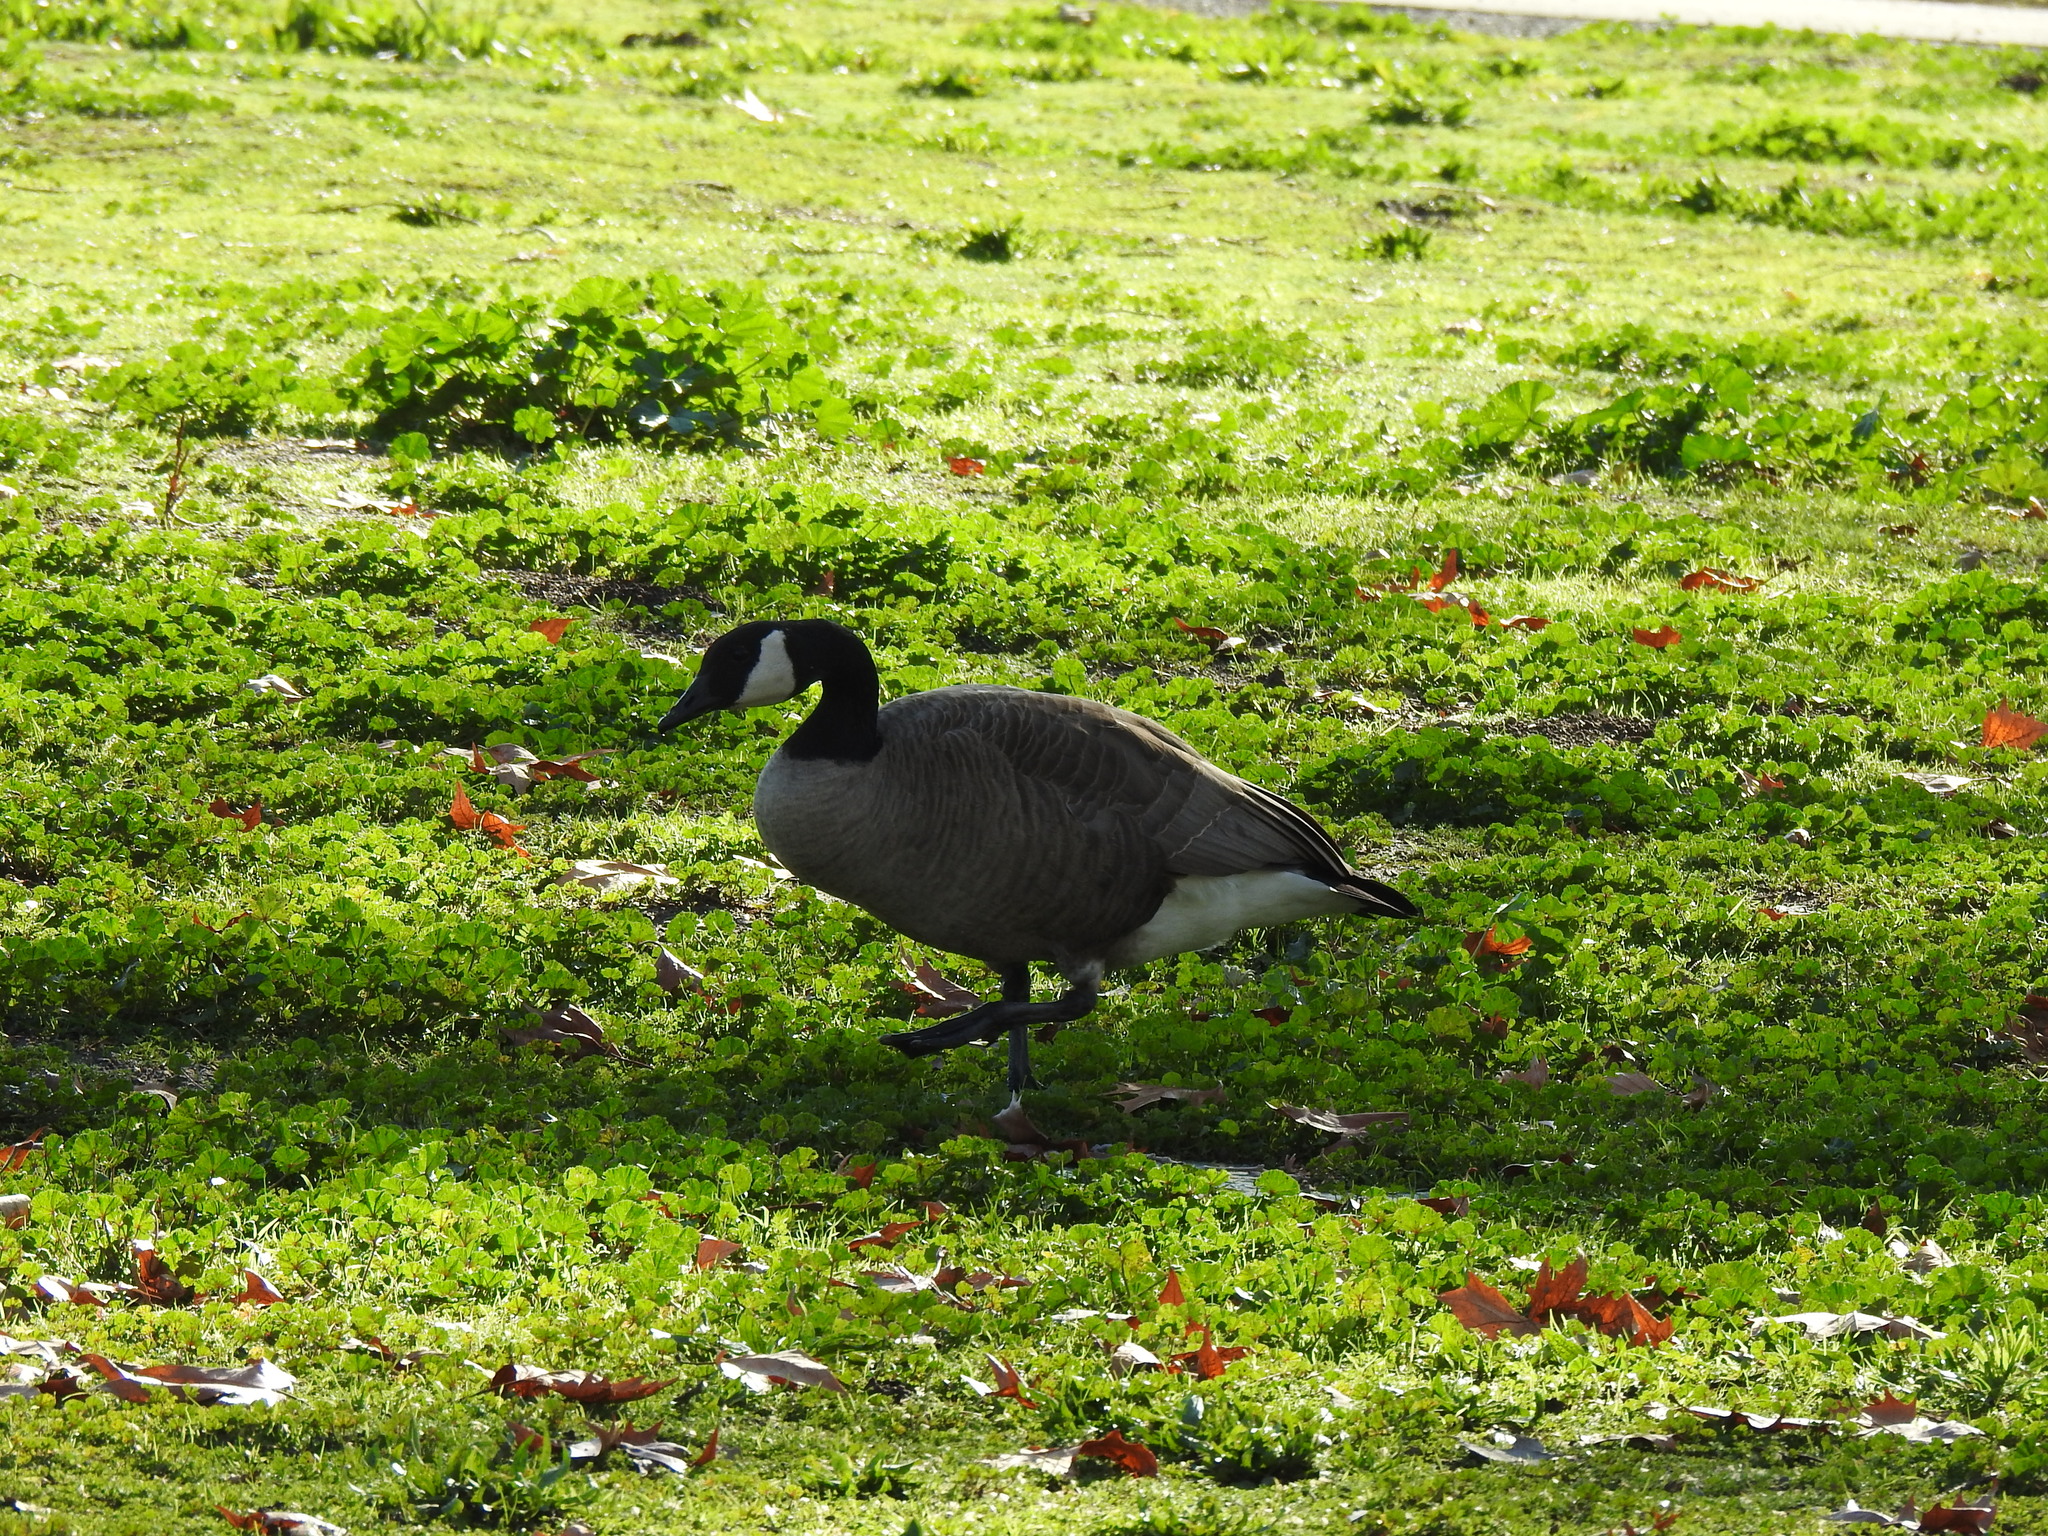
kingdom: Animalia
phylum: Chordata
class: Aves
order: Anseriformes
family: Anatidae
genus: Branta
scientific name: Branta canadensis
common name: Canada goose
